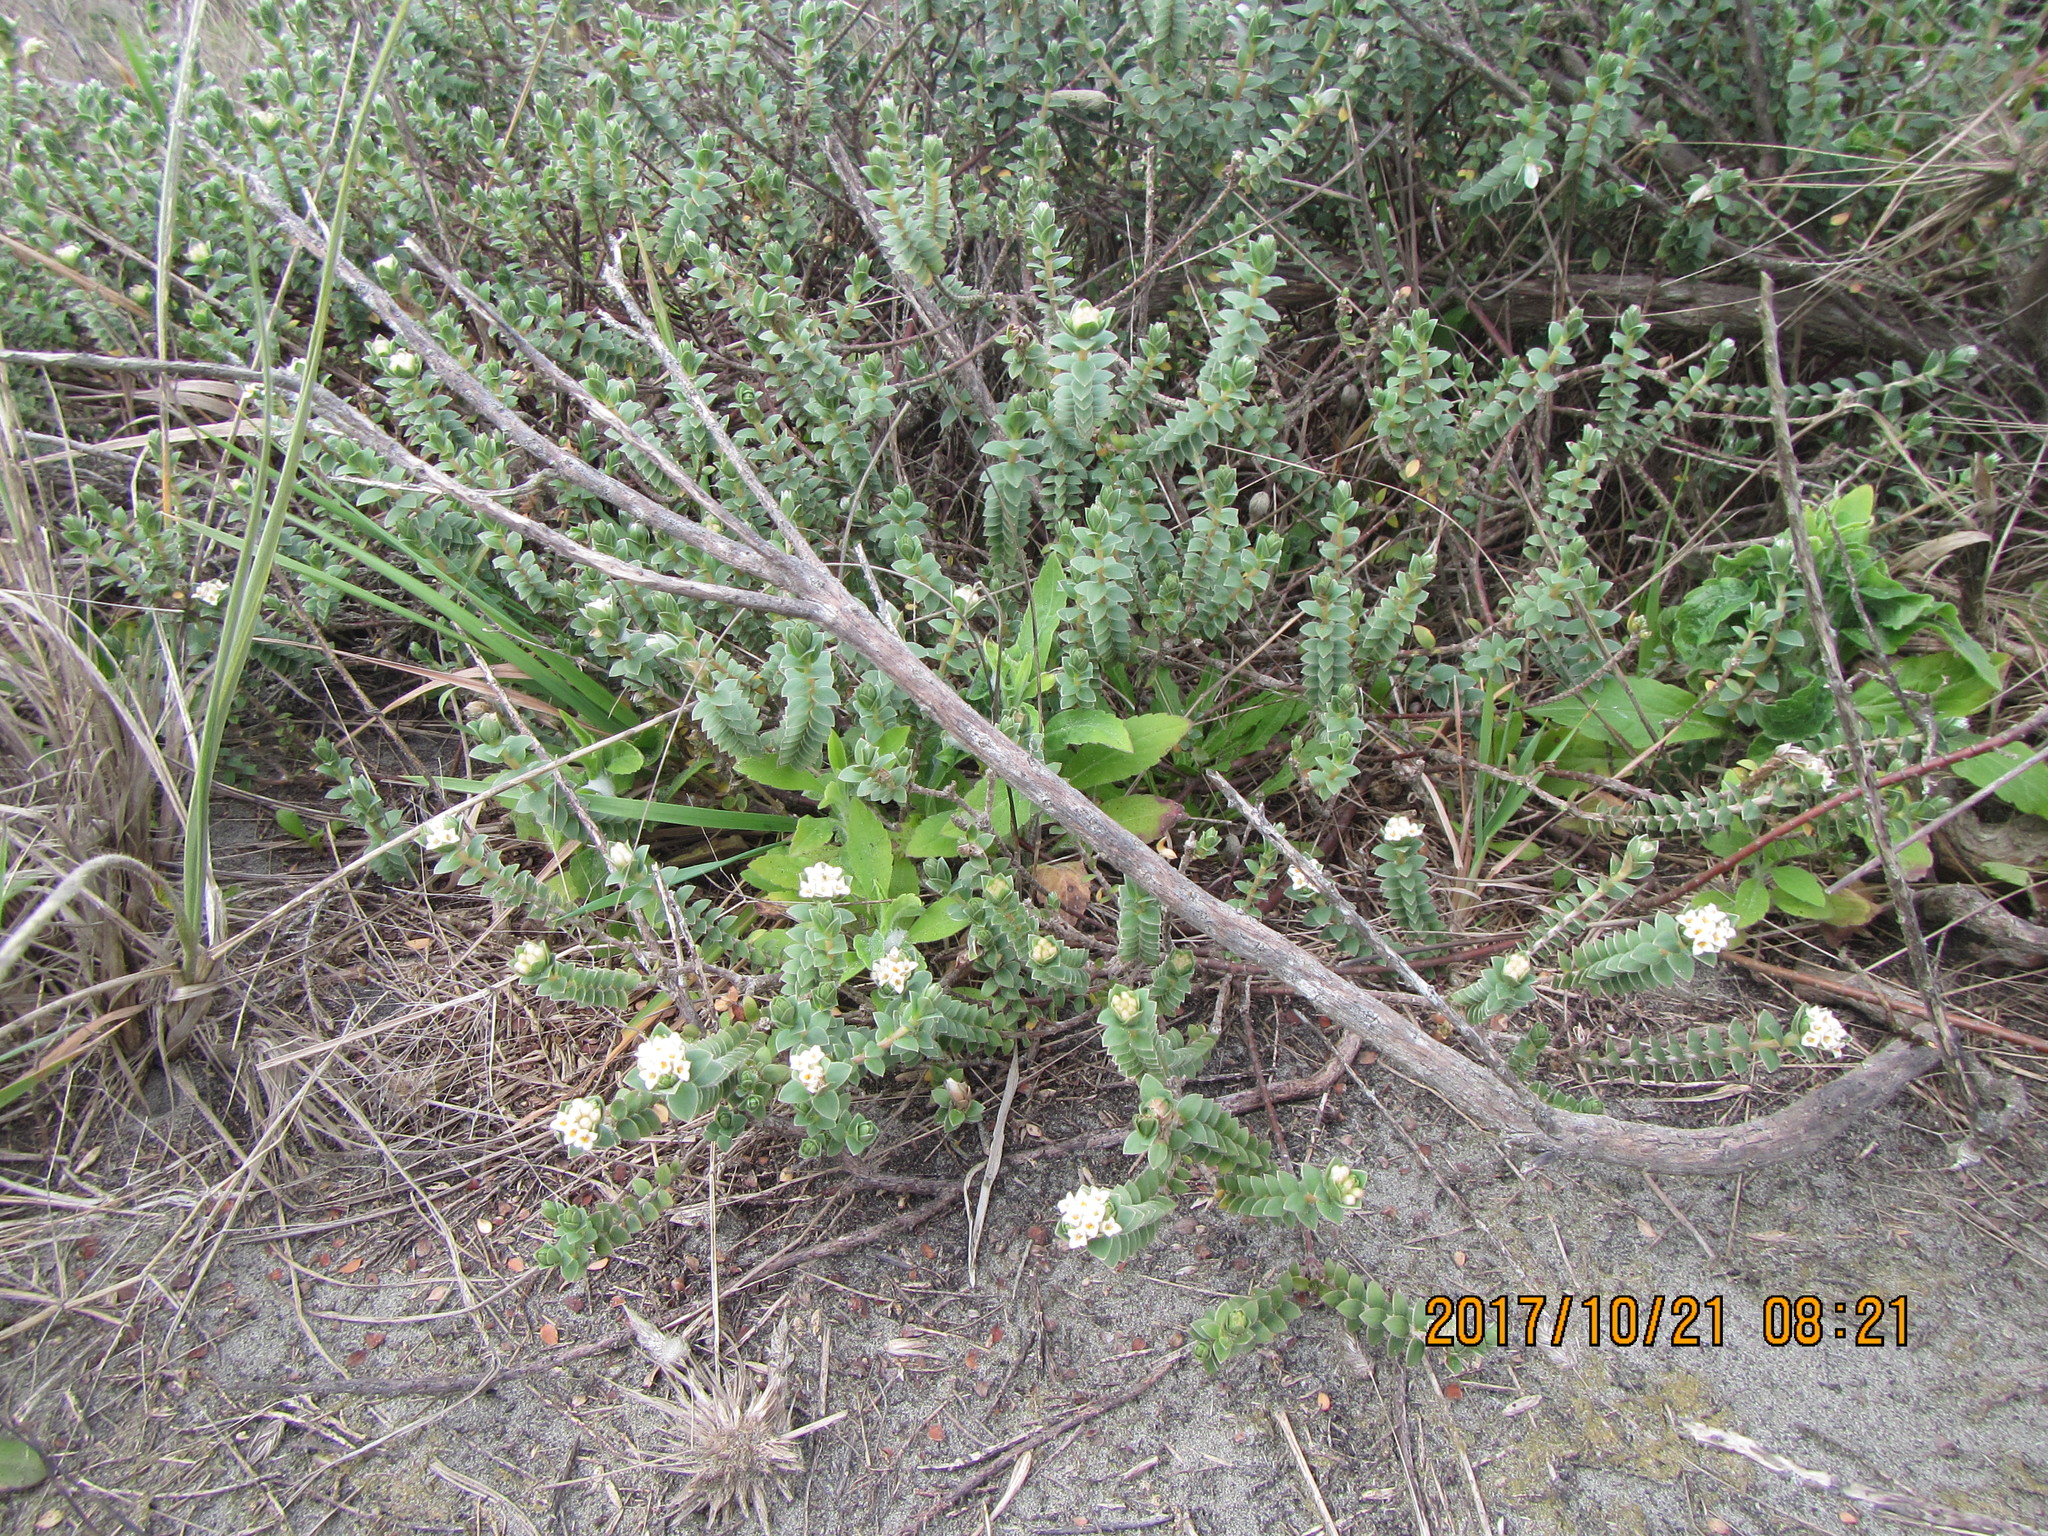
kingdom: Plantae
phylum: Tracheophyta
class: Magnoliopsida
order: Malvales
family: Thymelaeaceae
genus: Pimelea
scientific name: Pimelea villosa
